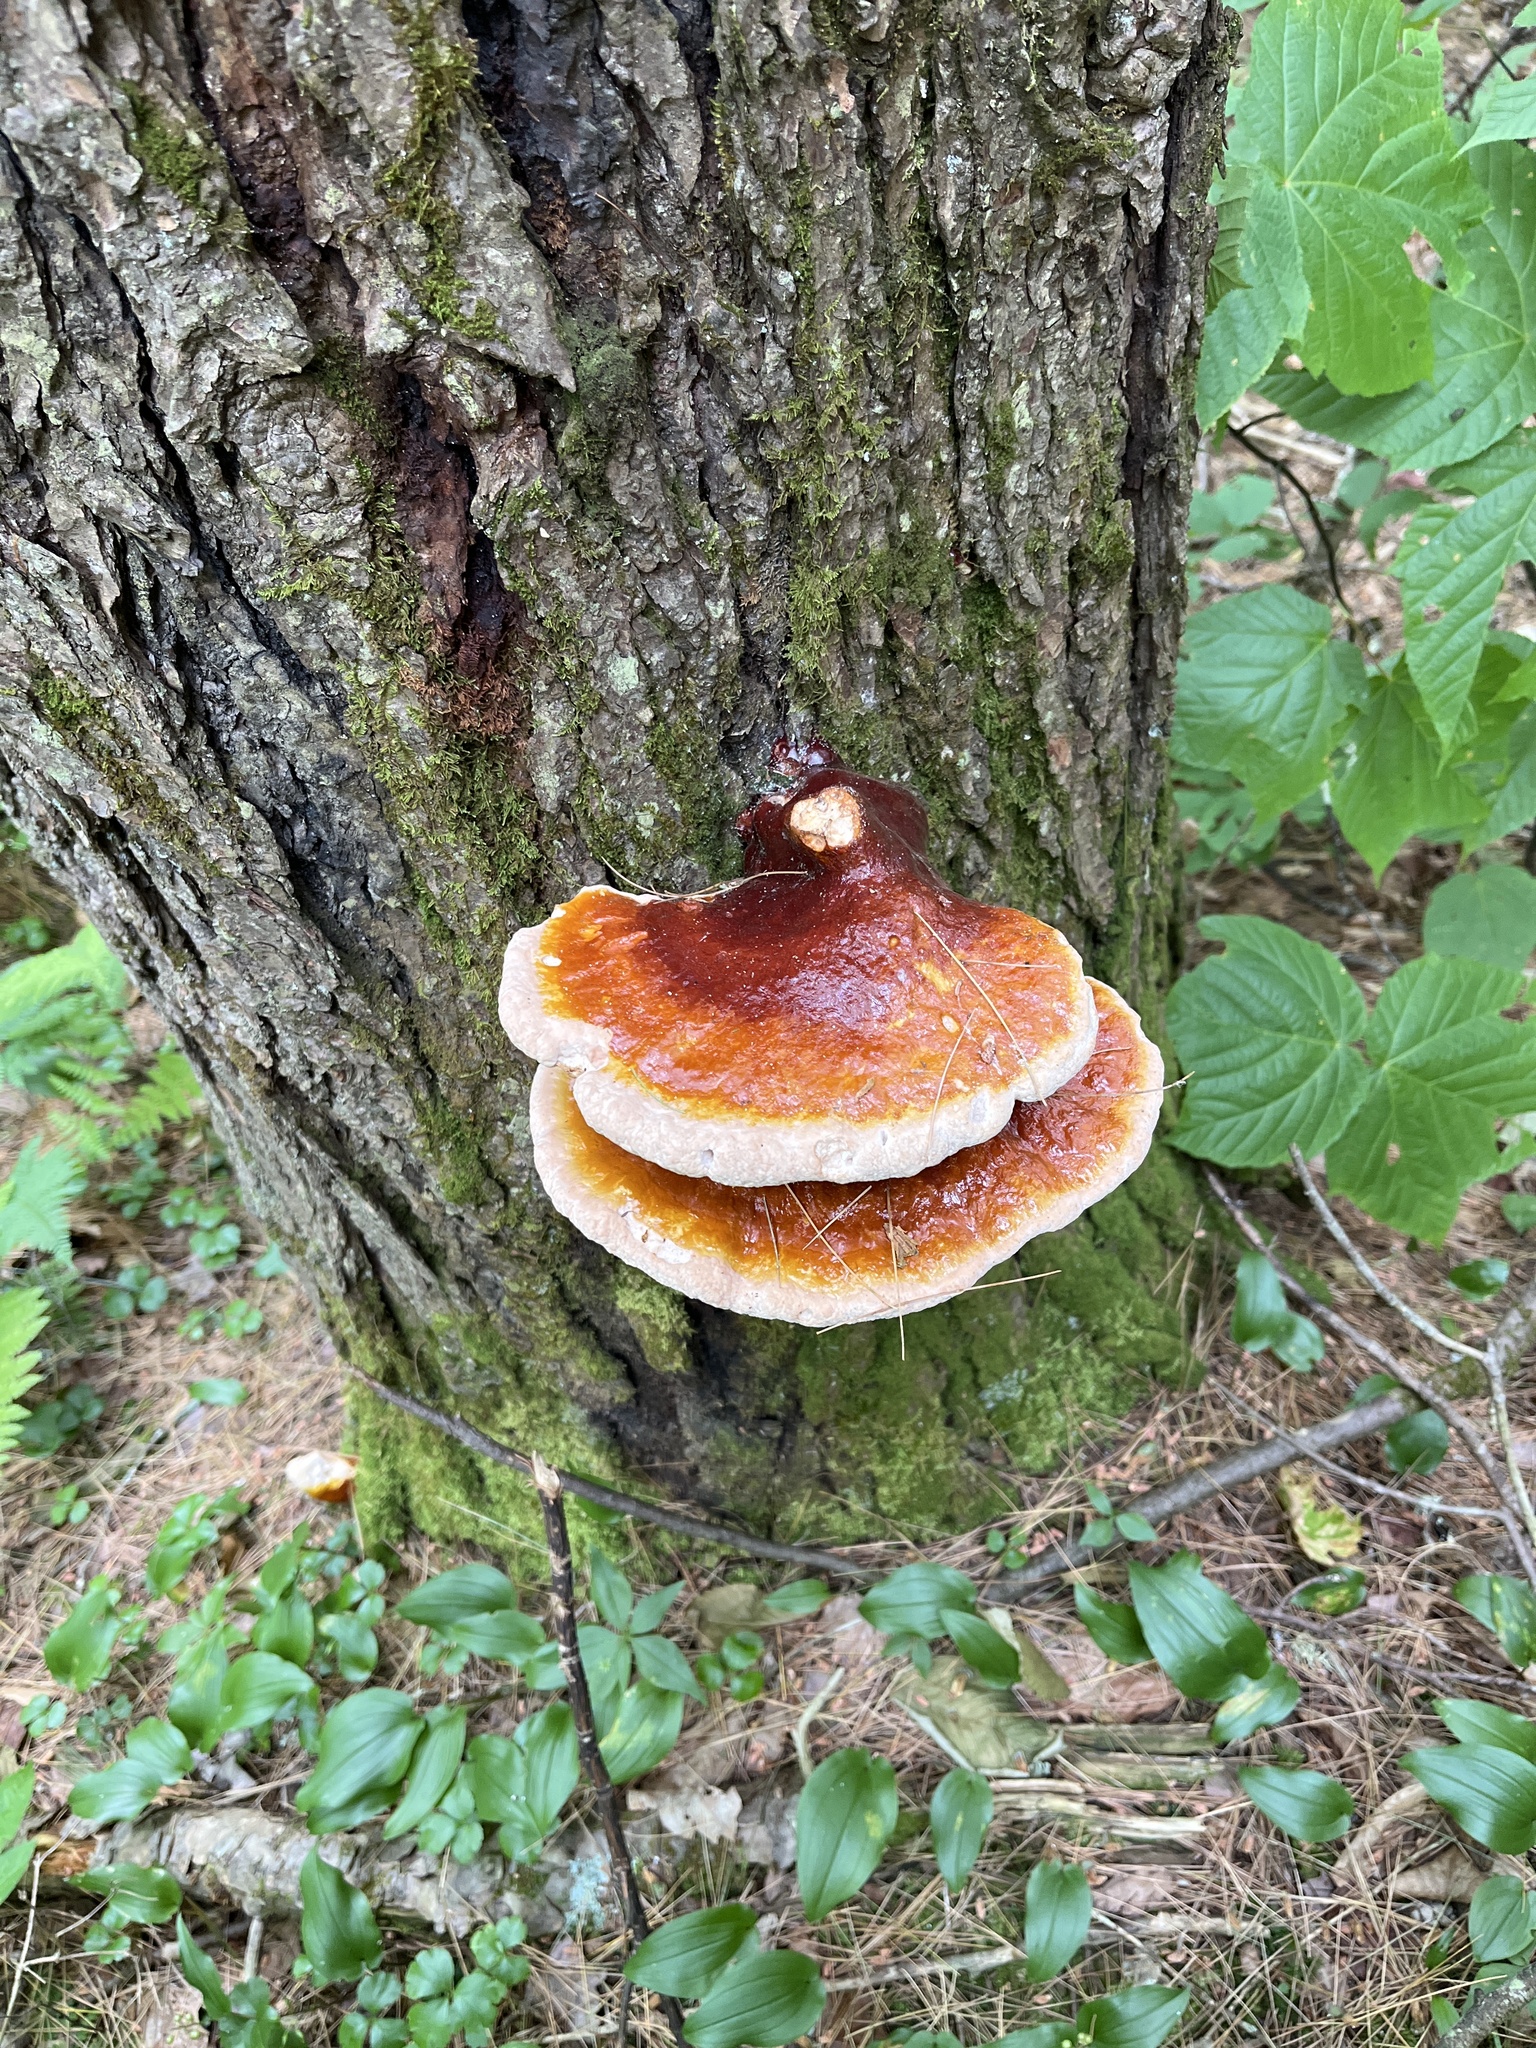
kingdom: Fungi
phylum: Basidiomycota
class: Agaricomycetes
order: Polyporales
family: Polyporaceae
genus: Ganoderma
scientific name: Ganoderma tsugae
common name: Hemlock varnish shelf
